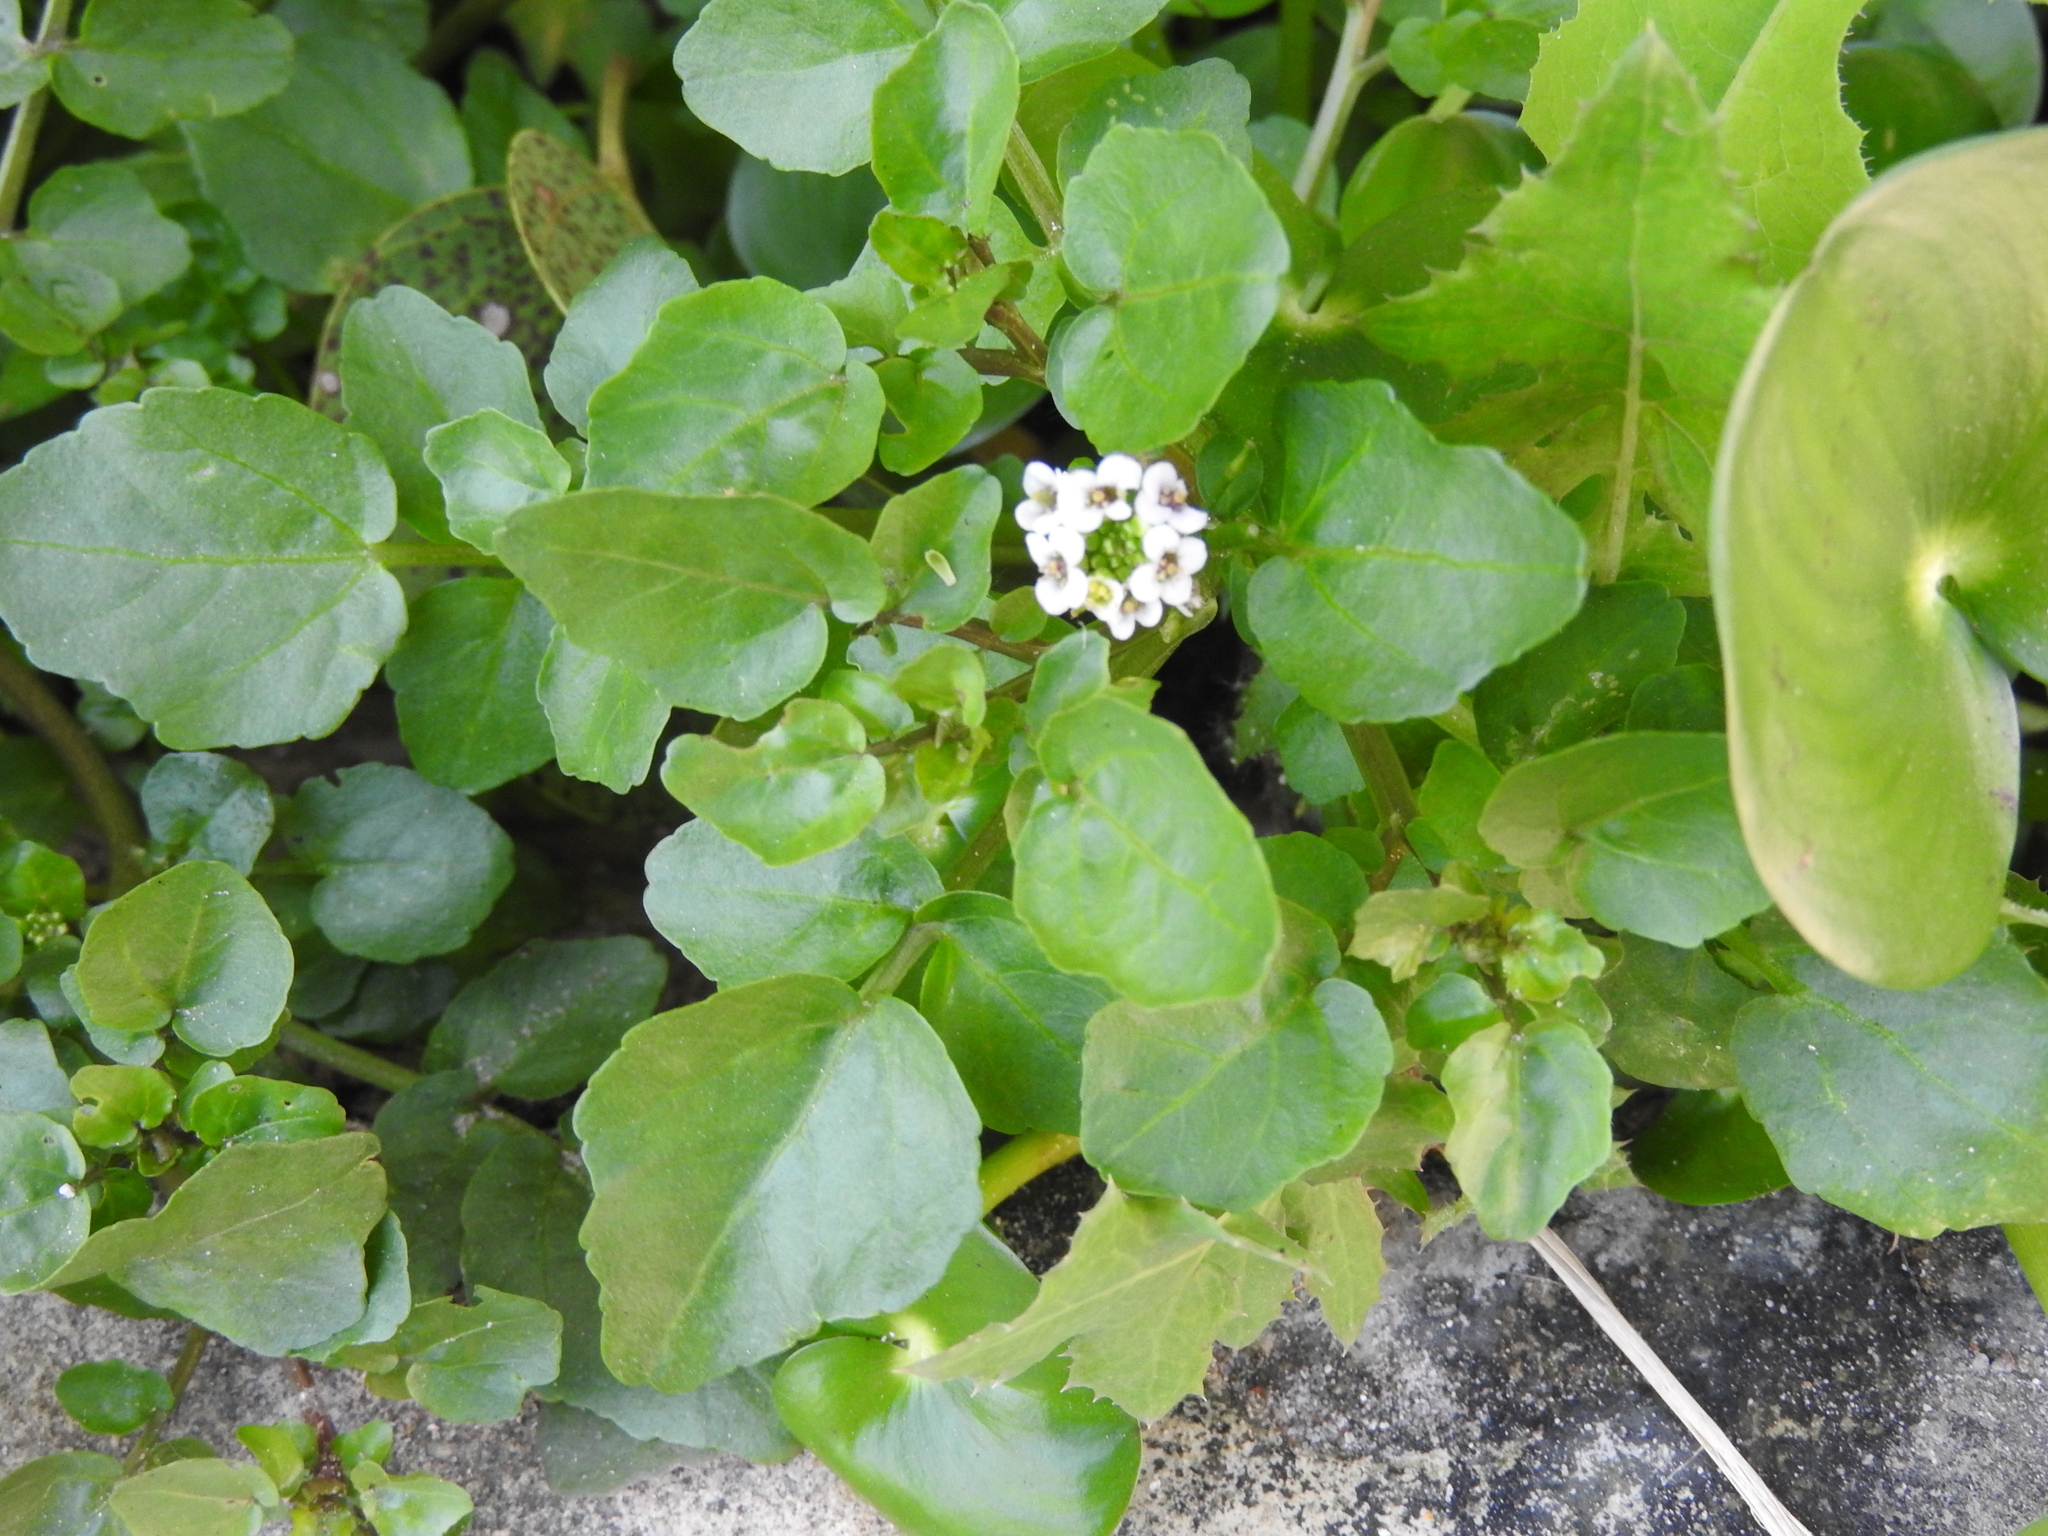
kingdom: Plantae
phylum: Tracheophyta
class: Magnoliopsida
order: Brassicales
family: Brassicaceae
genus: Nasturtium
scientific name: Nasturtium officinale
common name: Watercress
